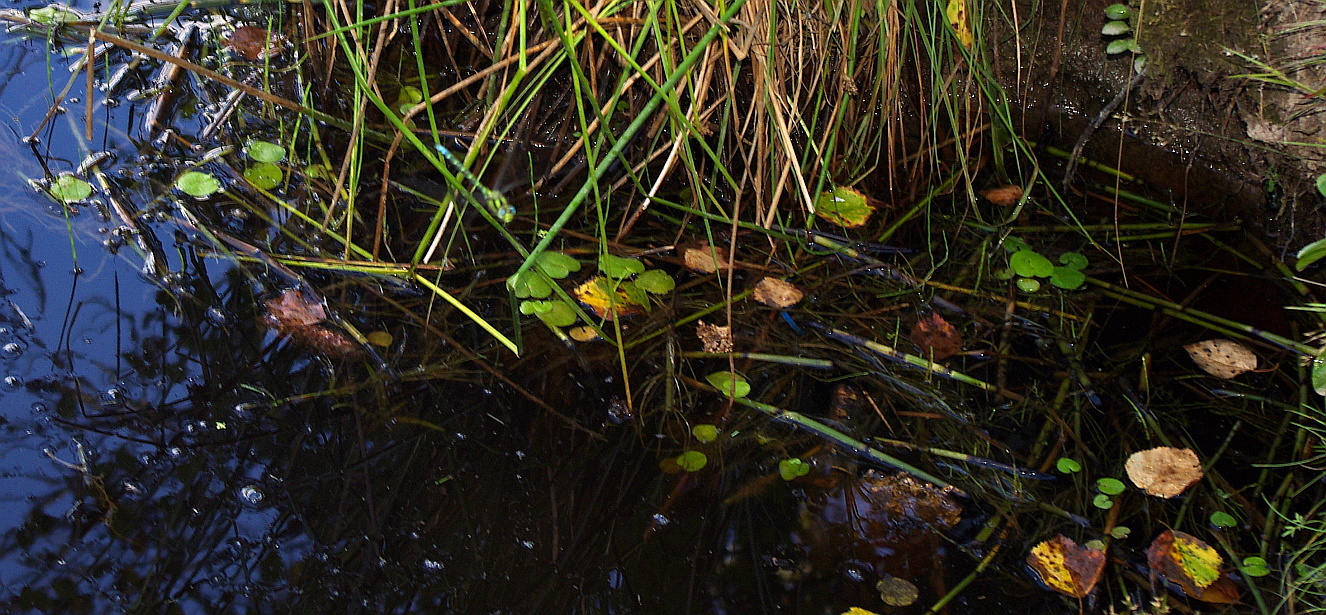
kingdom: Plantae
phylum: Tracheophyta
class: Liliopsida
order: Alismatales
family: Hydrocharitaceae
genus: Hydrocharis
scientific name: Hydrocharis morsus-ranae
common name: Frogbit
